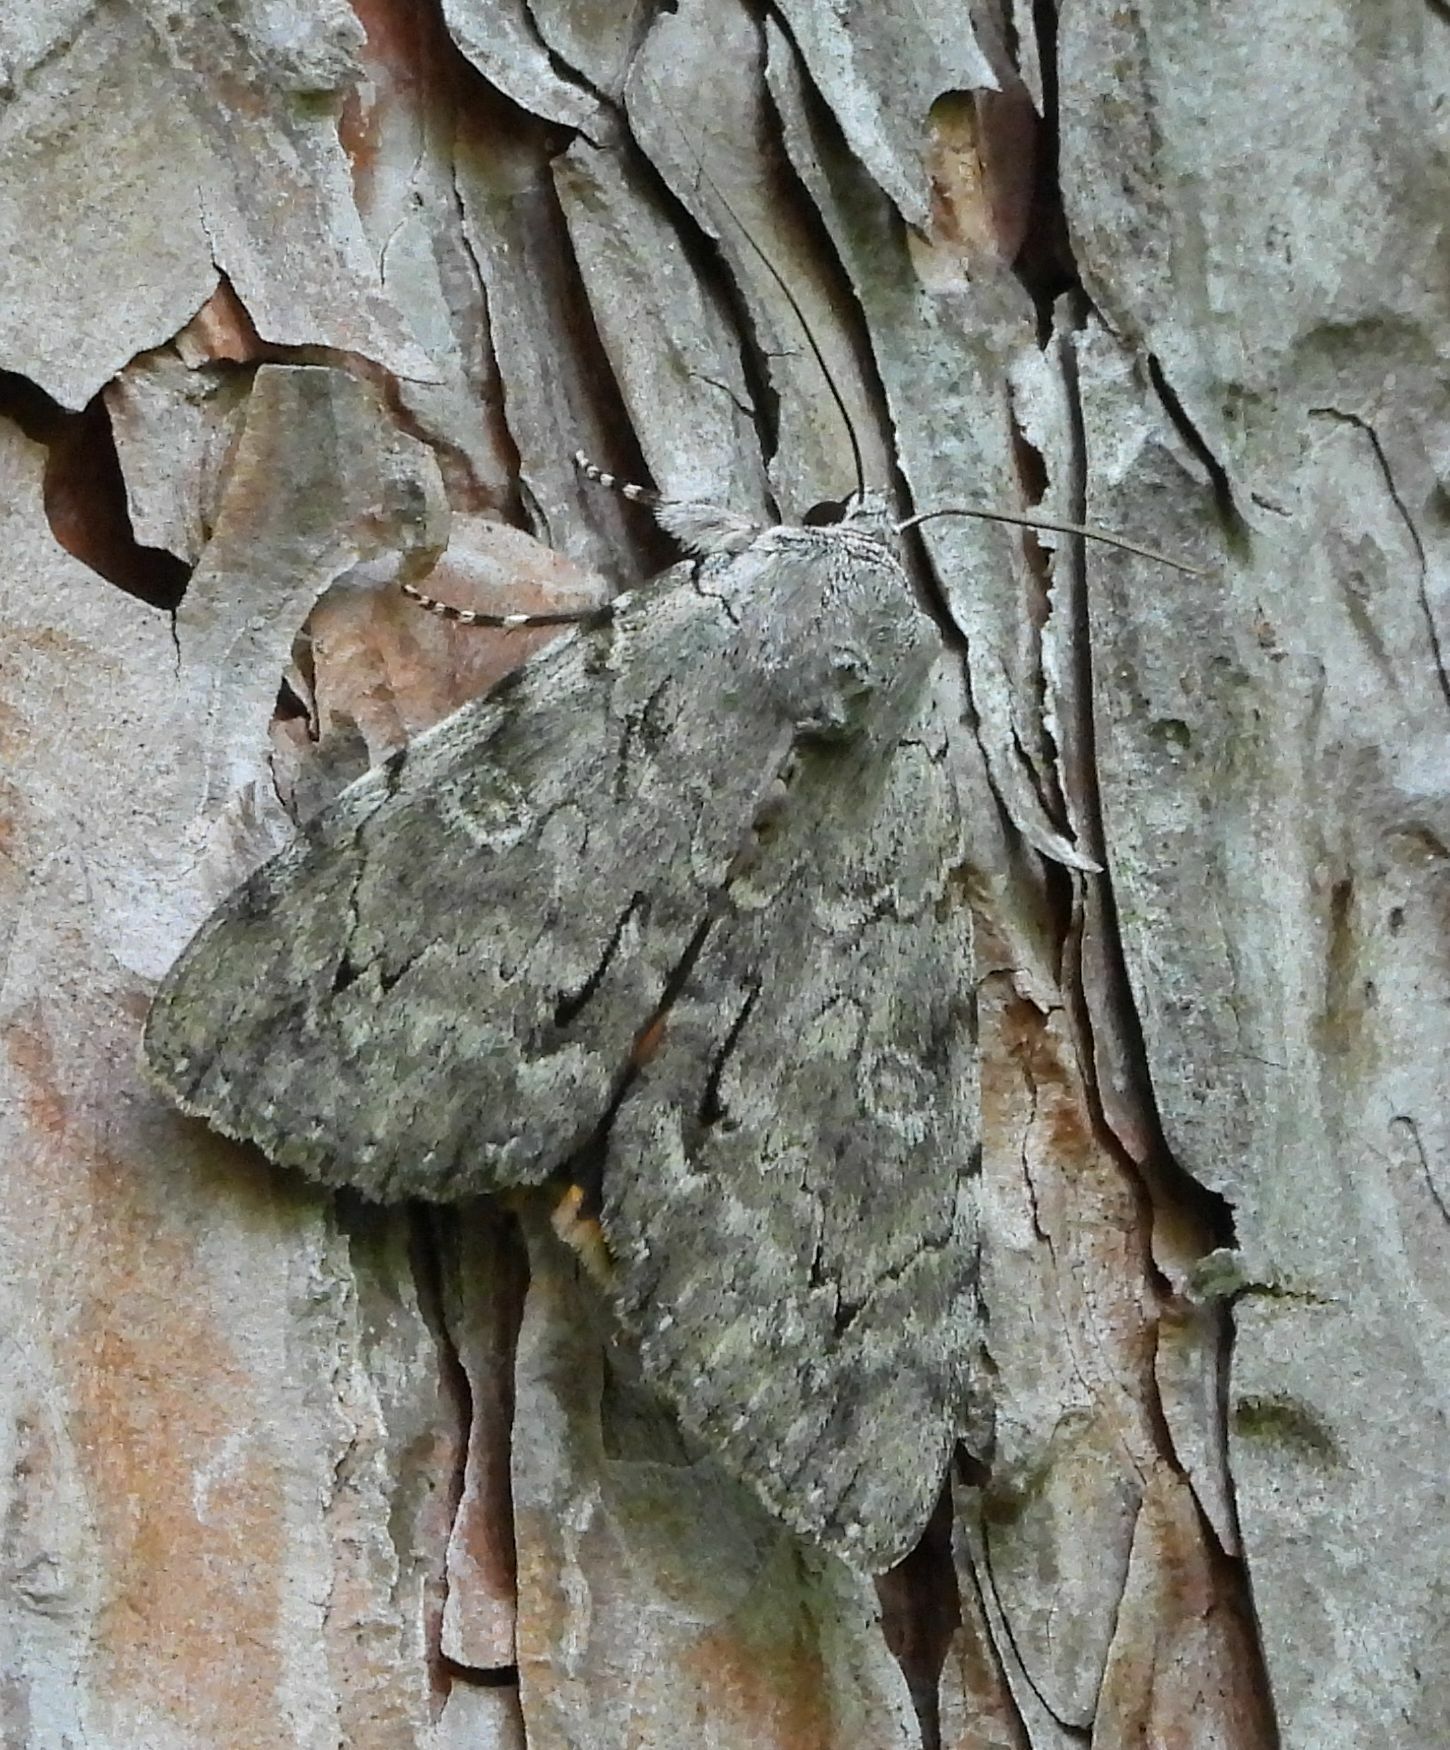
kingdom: Animalia
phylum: Arthropoda
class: Insecta
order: Lepidoptera
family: Erebidae
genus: Catocala
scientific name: Catocala habilis
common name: Habilis underwing
